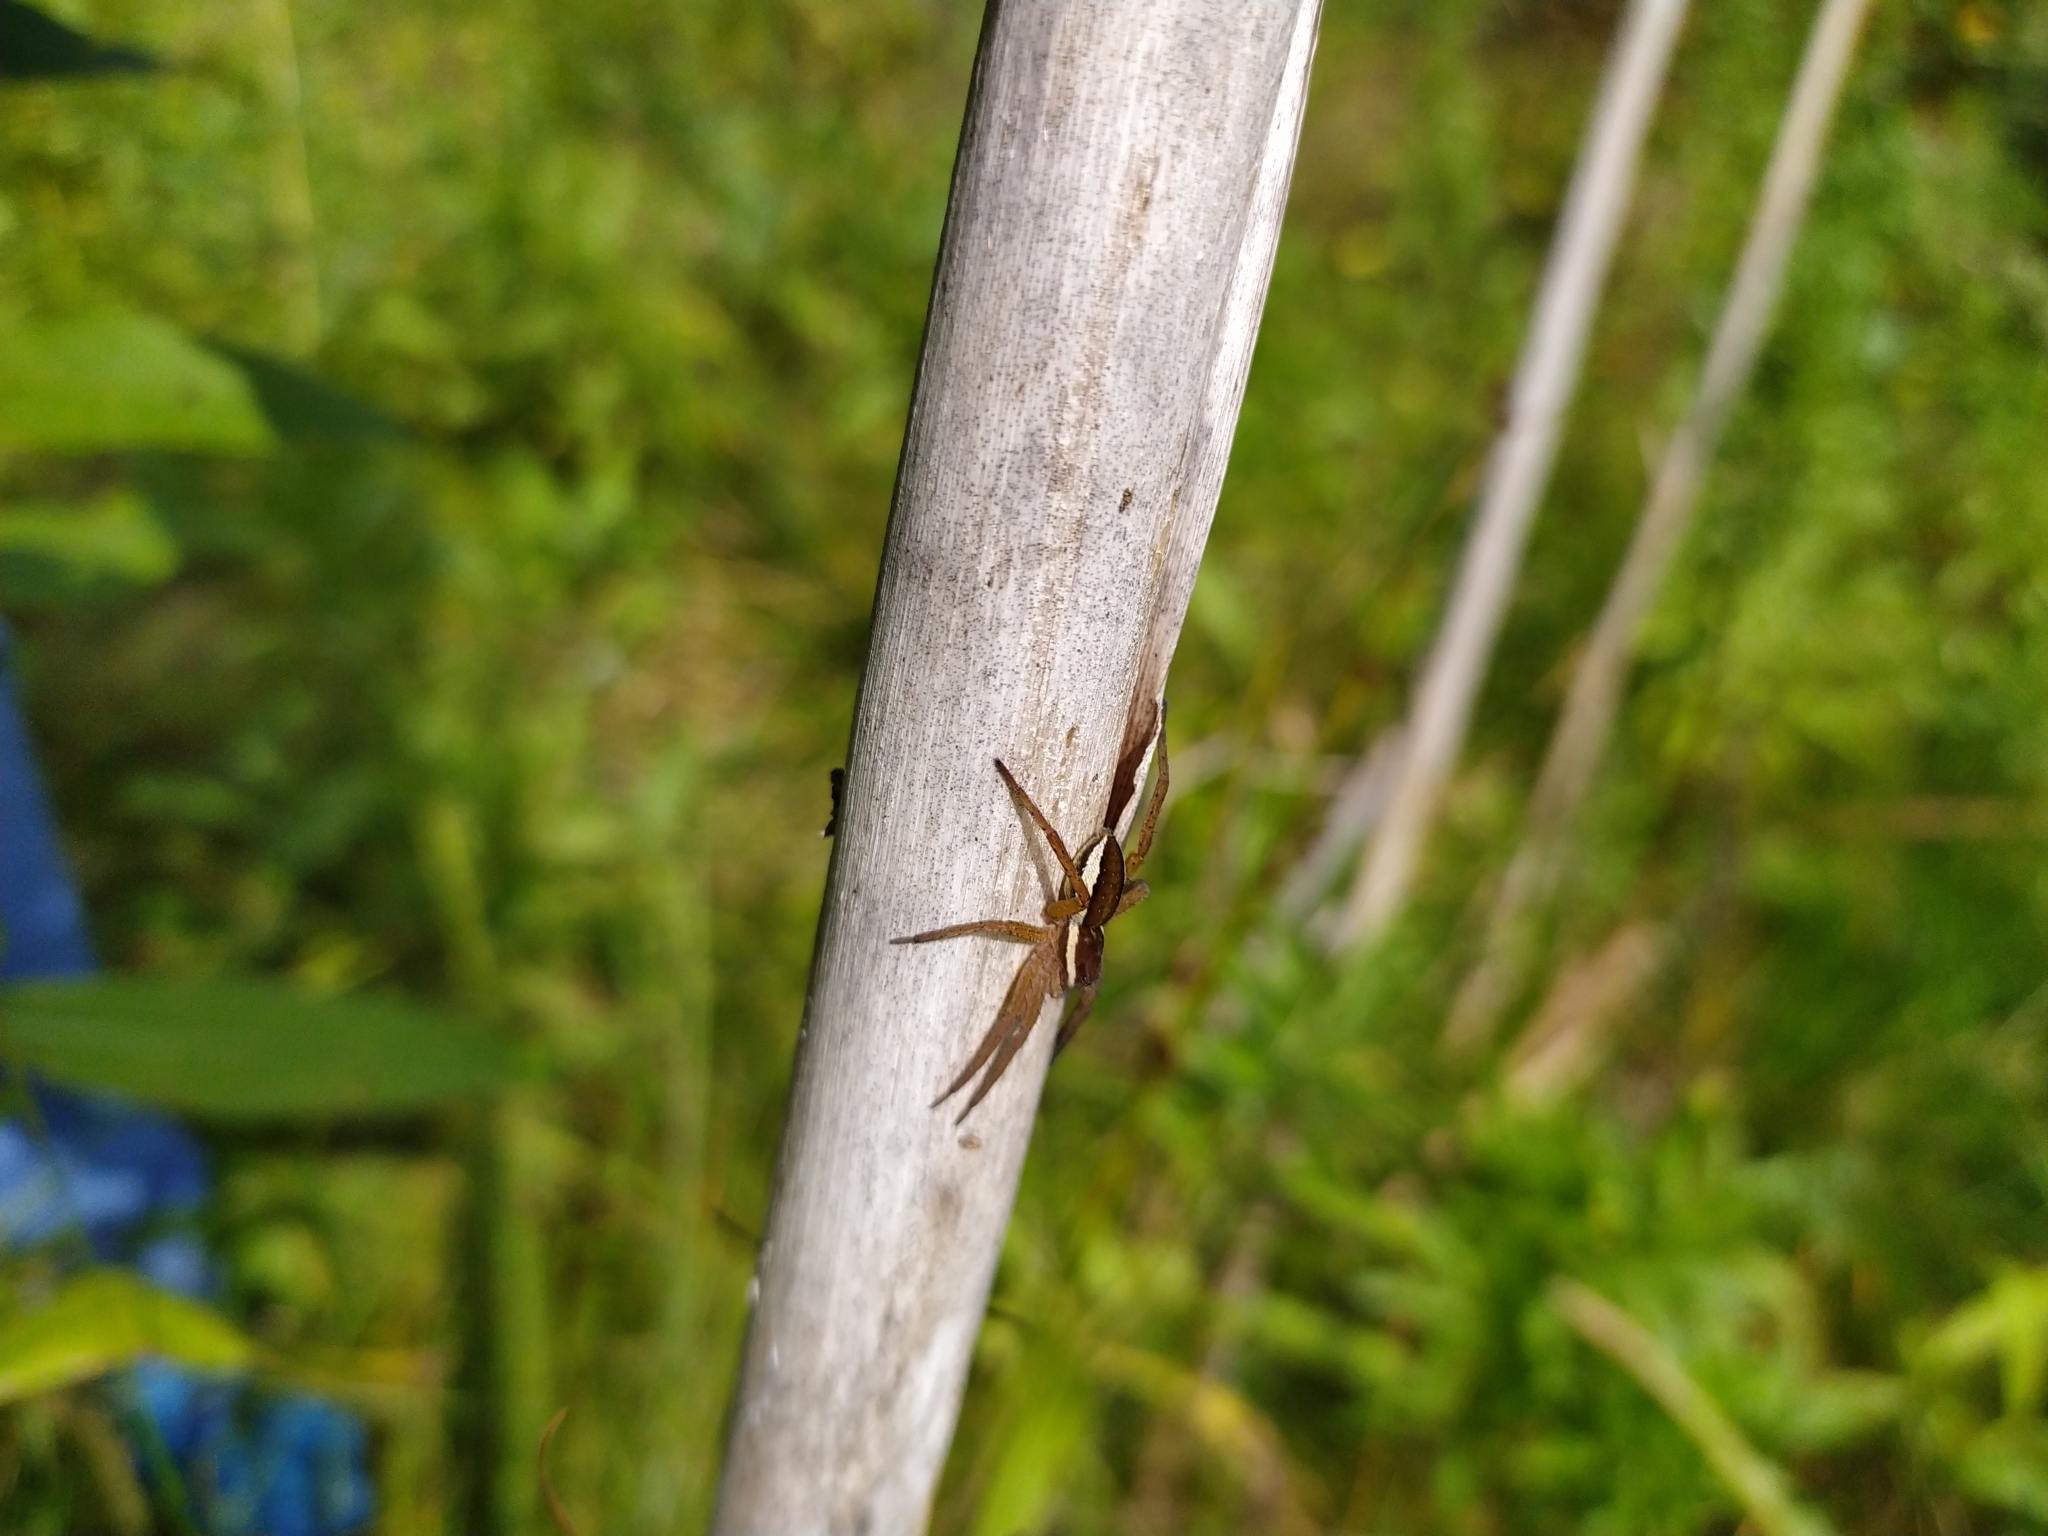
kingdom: Animalia
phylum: Arthropoda
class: Arachnida
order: Araneae
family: Pisauridae
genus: Dolomedes
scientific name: Dolomedes fimbriatus
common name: Raft spider
